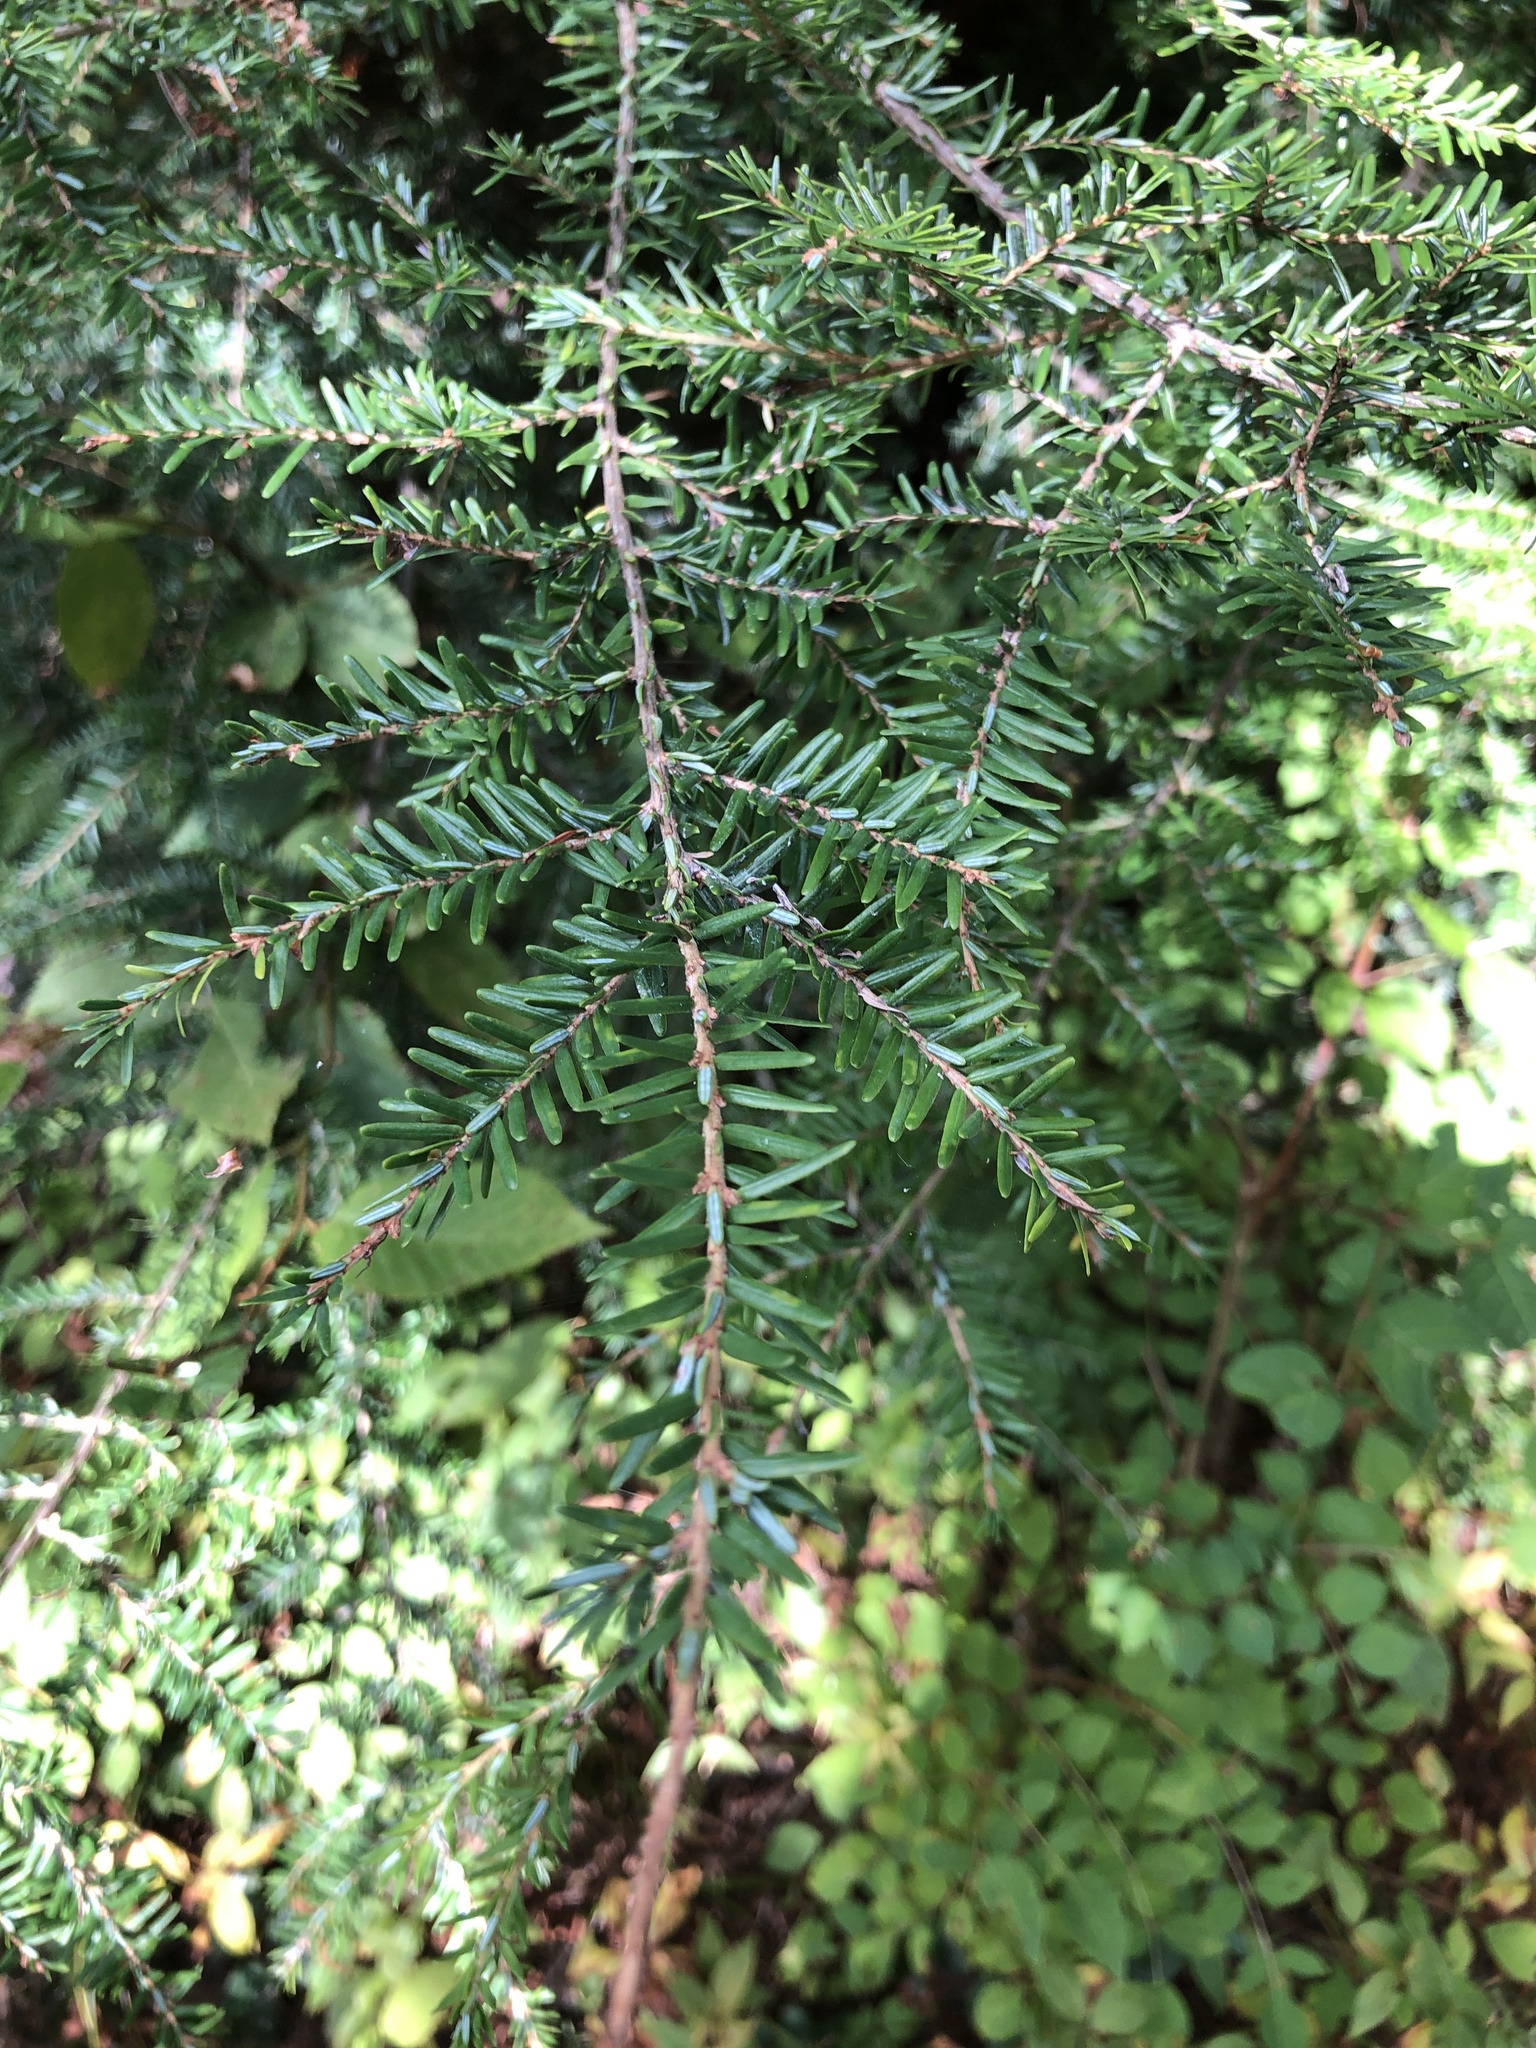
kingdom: Plantae
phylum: Tracheophyta
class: Pinopsida
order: Pinales
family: Pinaceae
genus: Tsuga
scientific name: Tsuga canadensis
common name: Eastern hemlock
